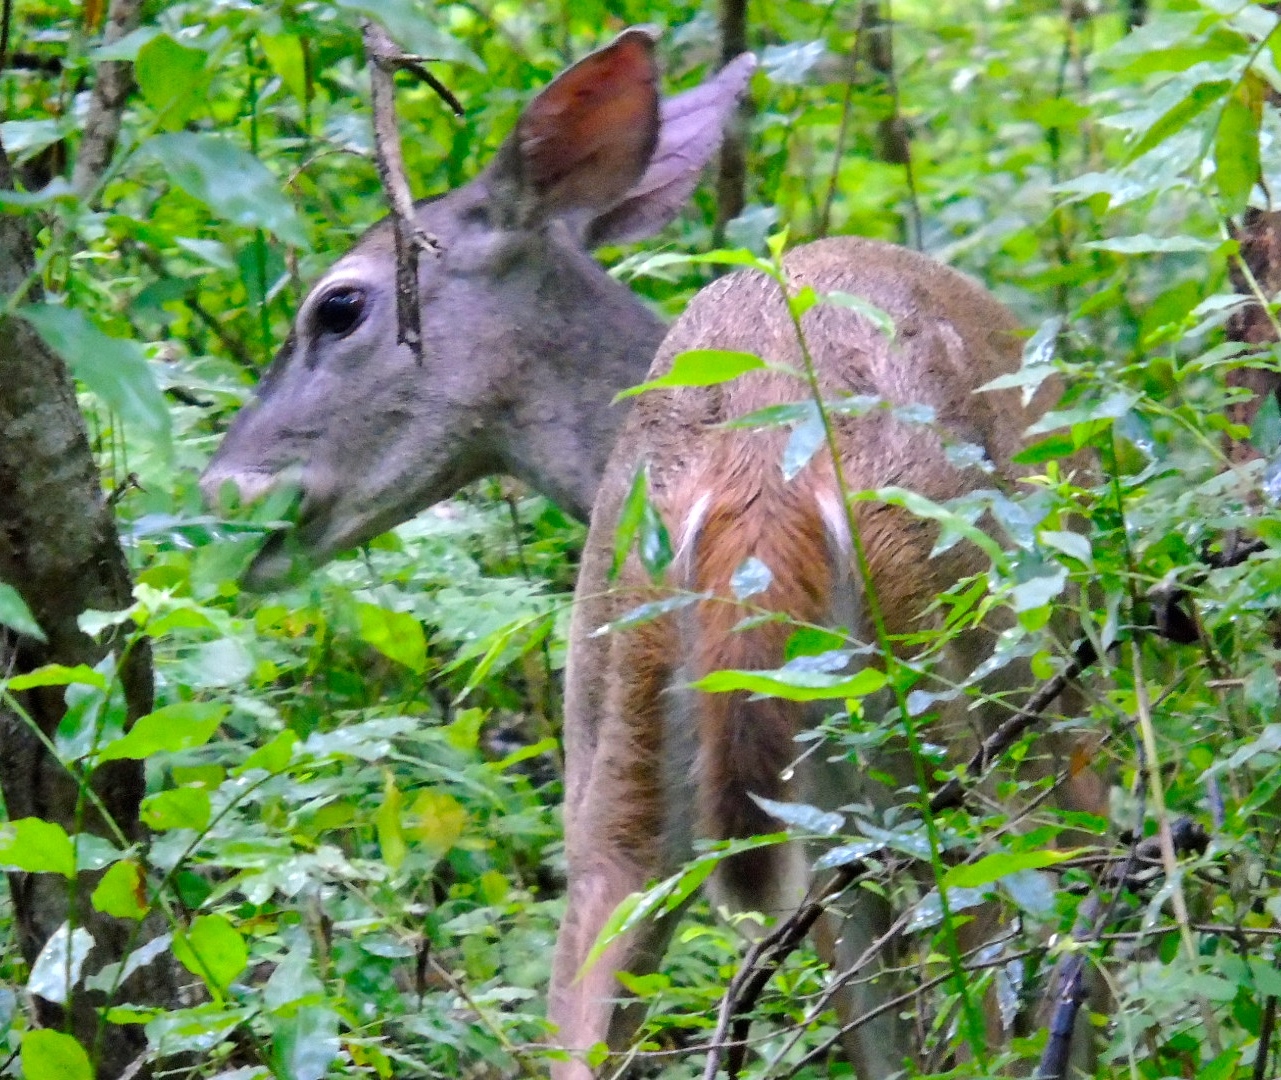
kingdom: Animalia
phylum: Chordata
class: Mammalia
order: Artiodactyla
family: Cervidae
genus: Odocoileus
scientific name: Odocoileus virginianus
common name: White-tailed deer
